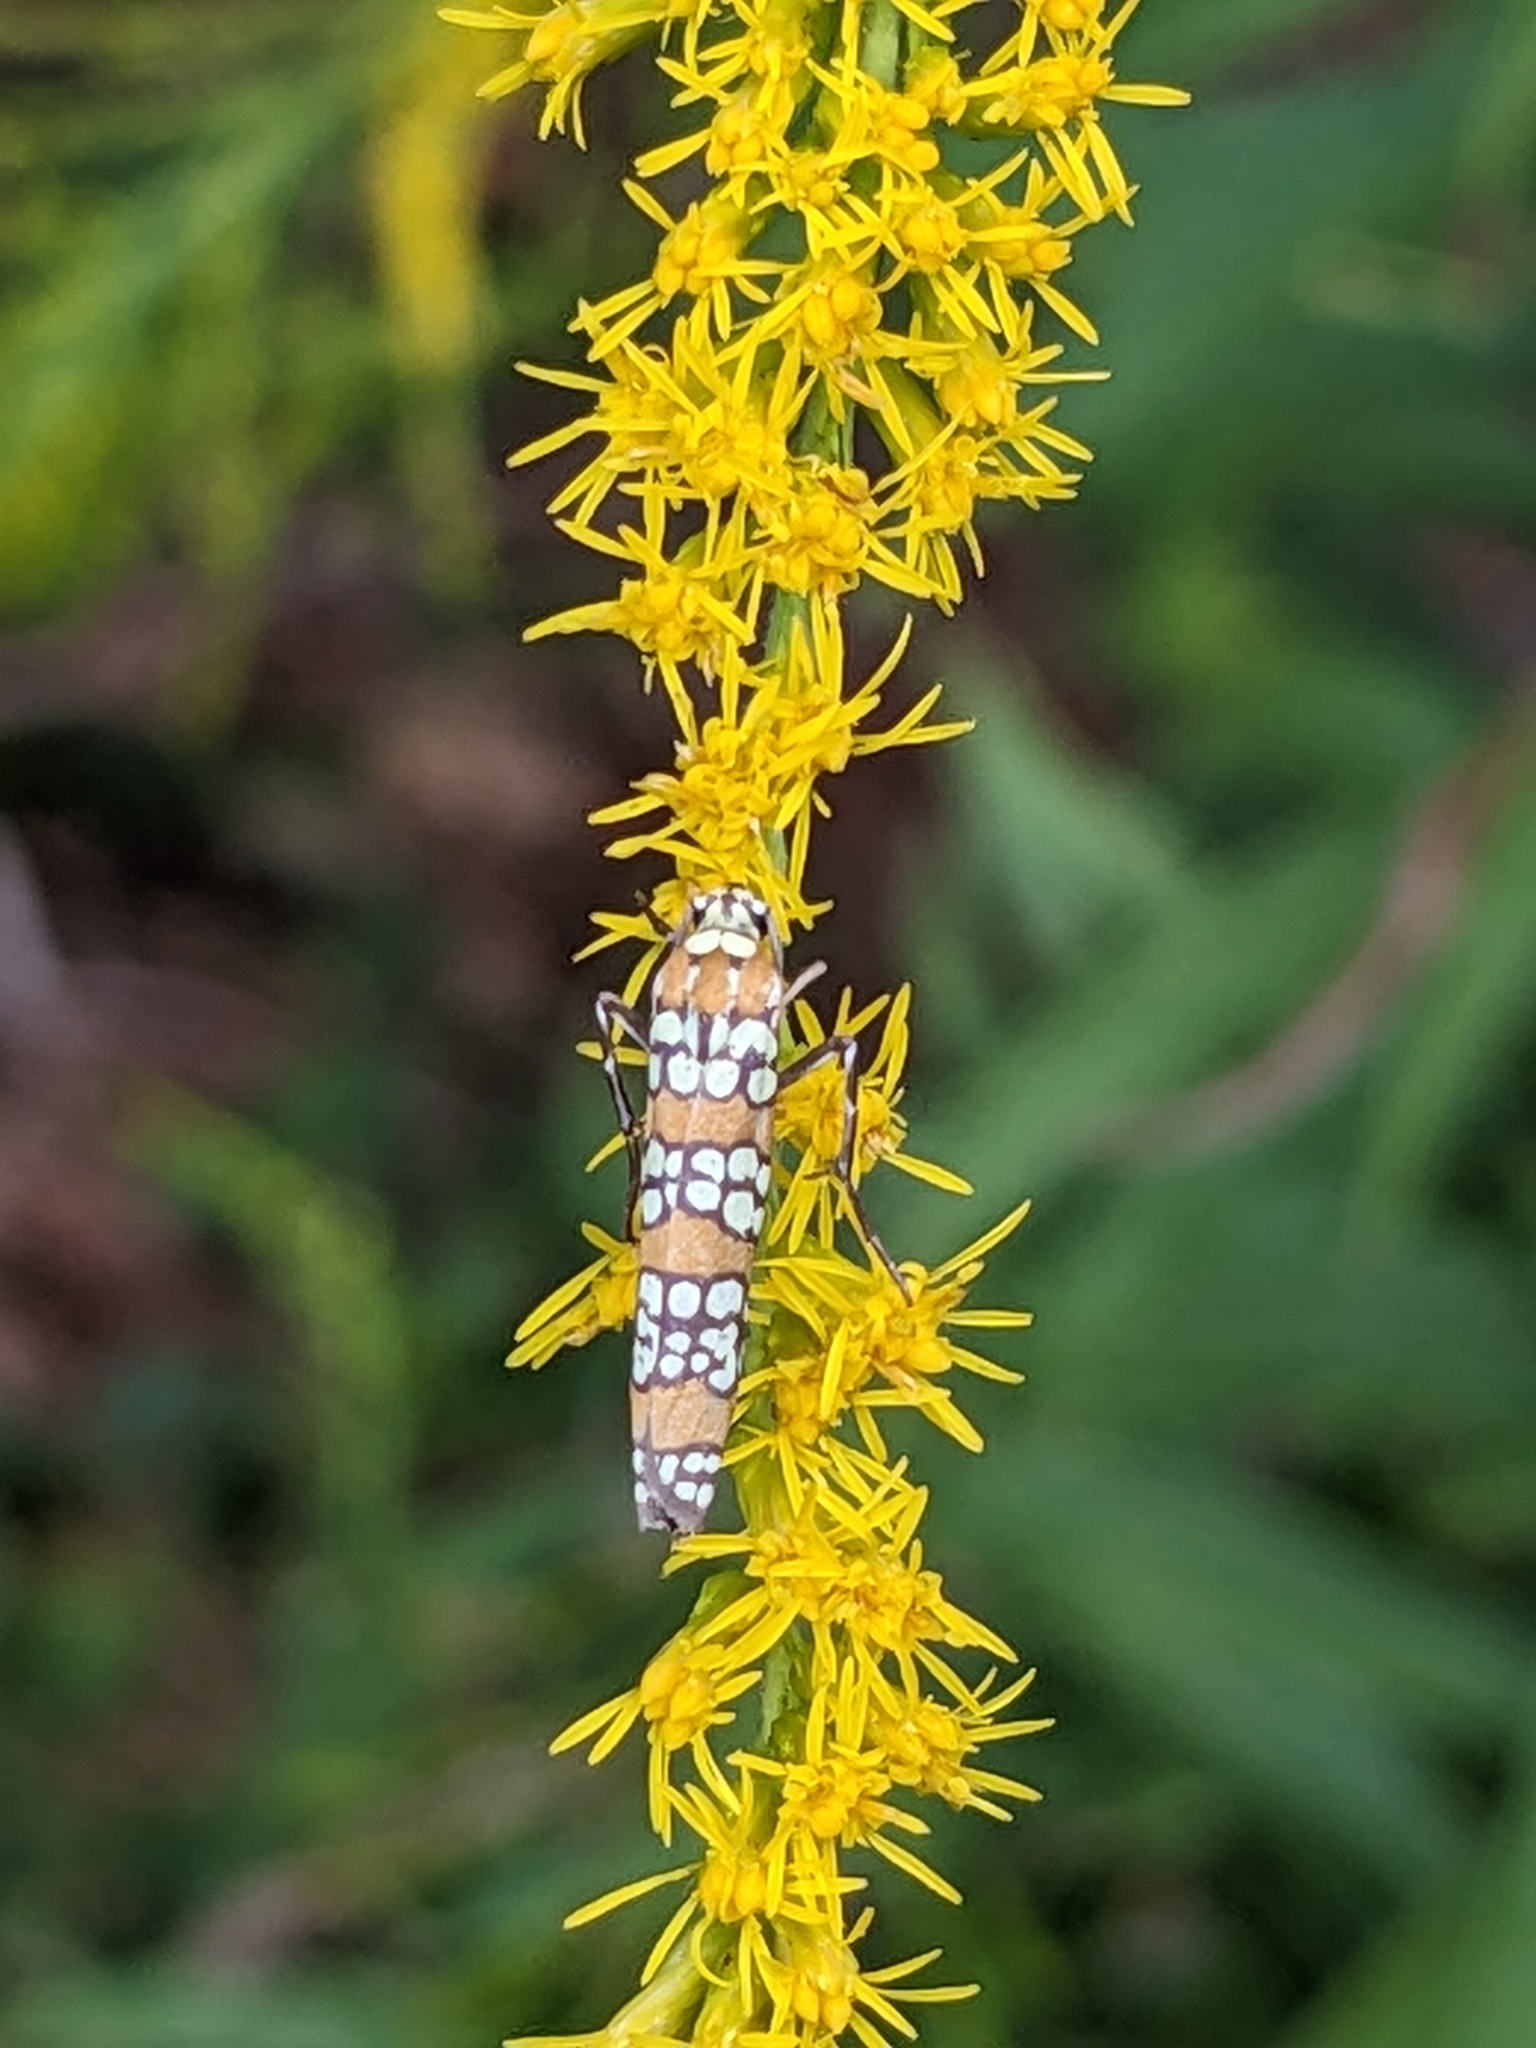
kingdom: Animalia
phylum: Arthropoda
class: Insecta
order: Lepidoptera
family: Attevidae
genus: Atteva
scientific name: Atteva punctella
